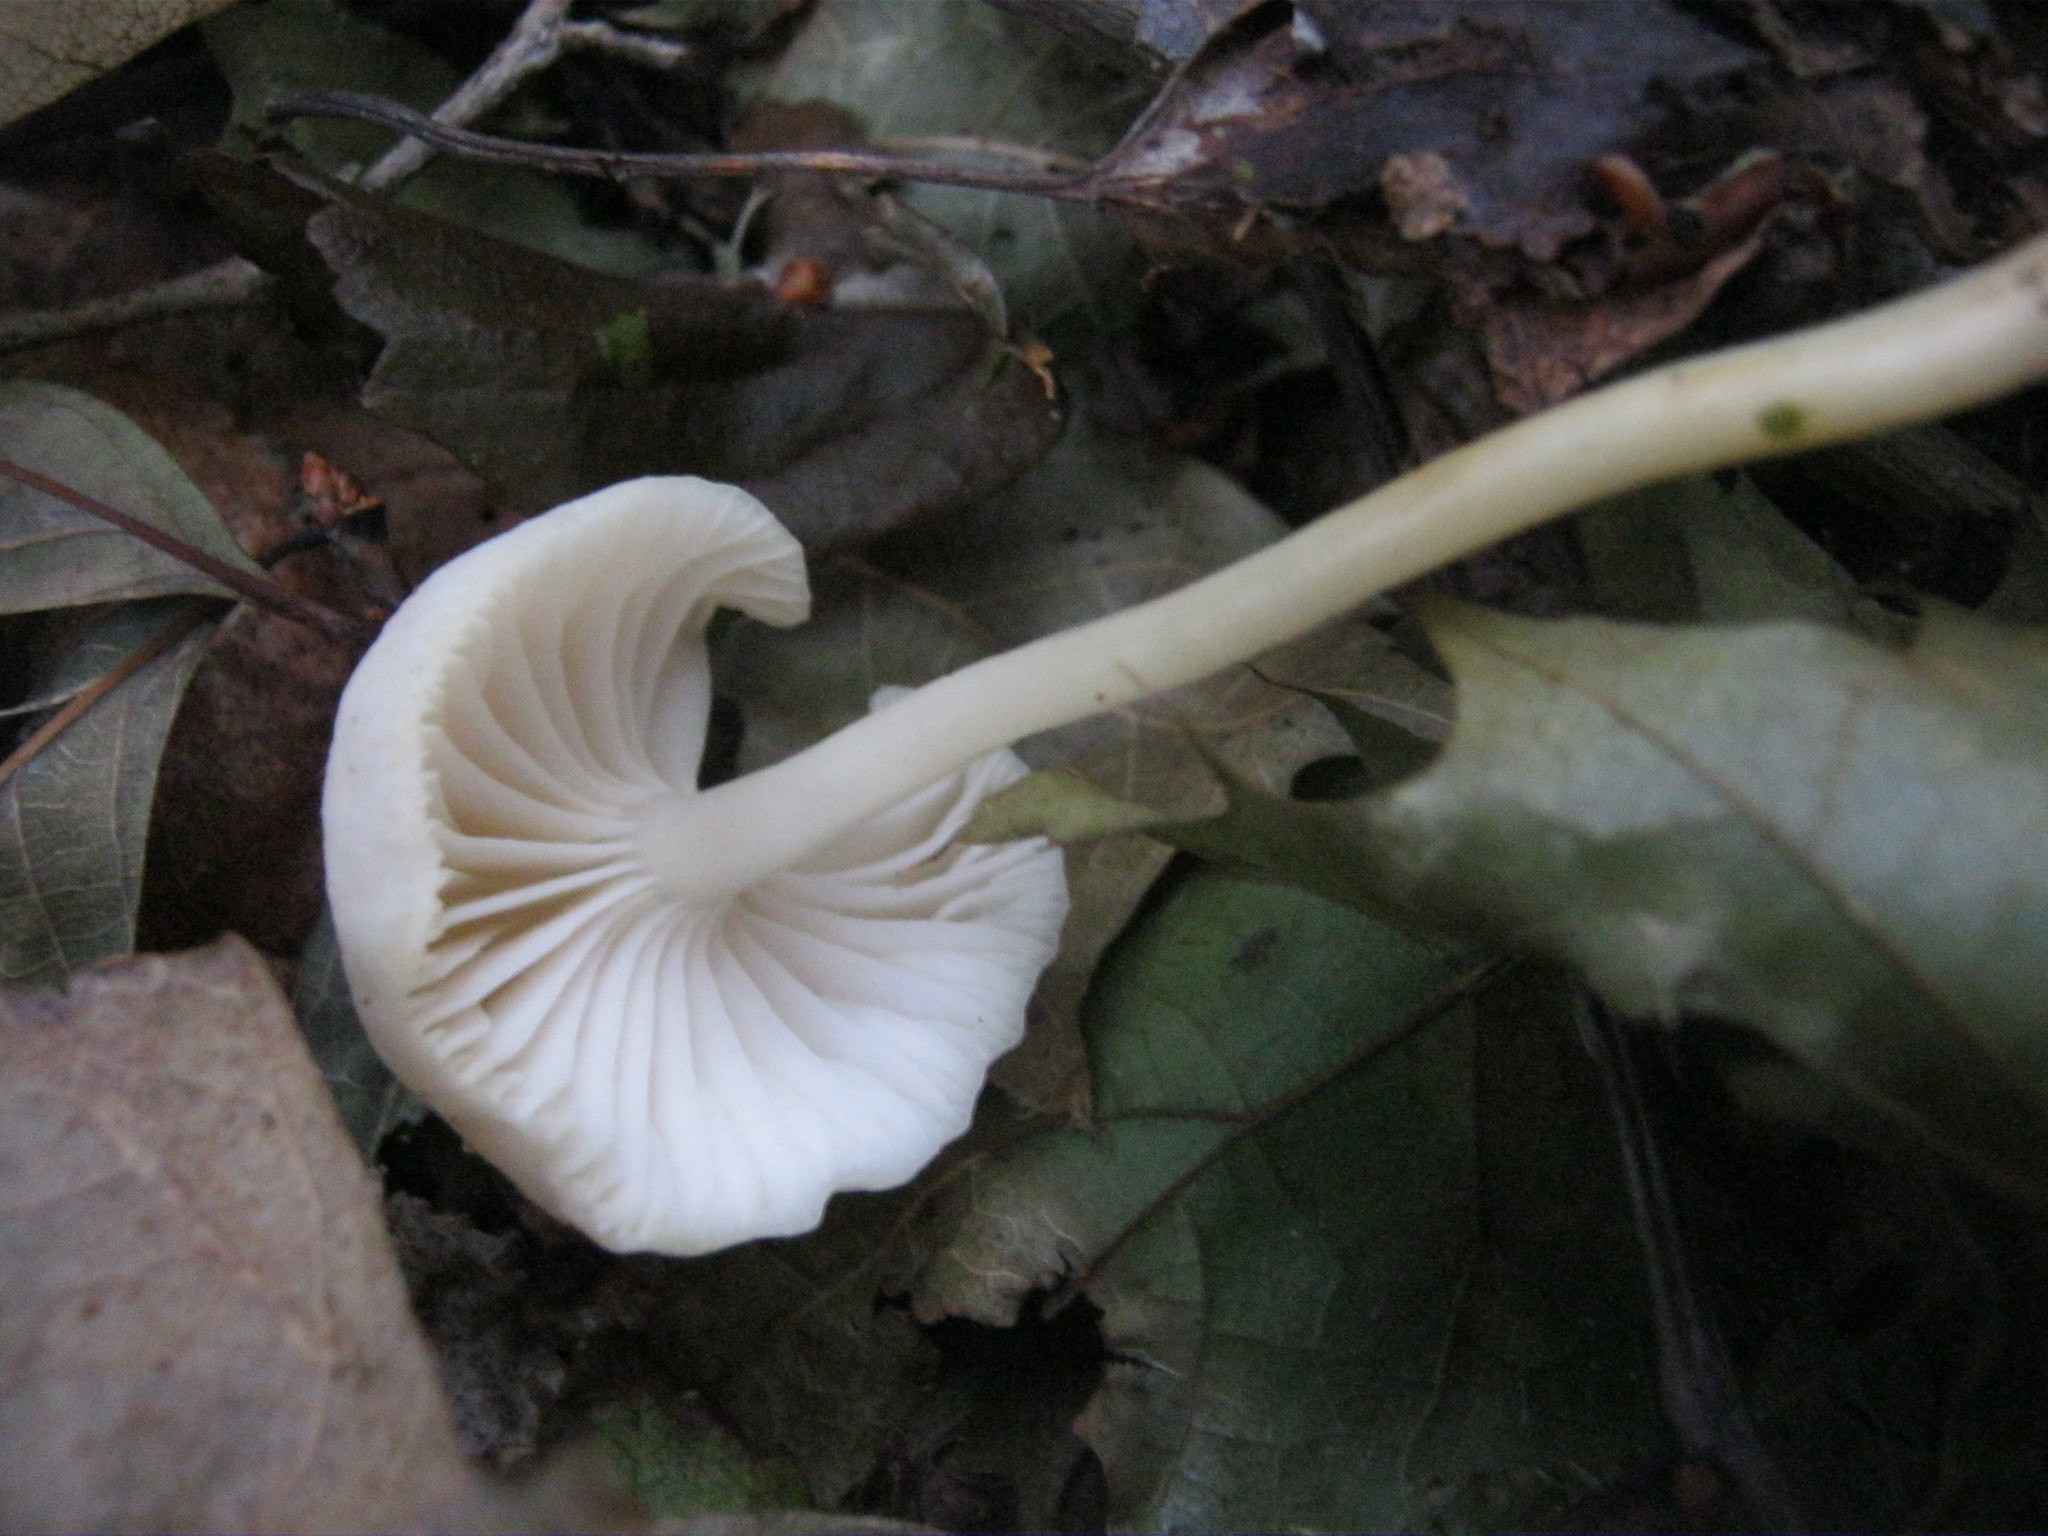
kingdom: Fungi
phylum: Basidiomycota
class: Agaricomycetes
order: Agaricales
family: Hygrophoraceae
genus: Gliophorus
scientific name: Gliophorus laetus
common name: Heath waxcap
